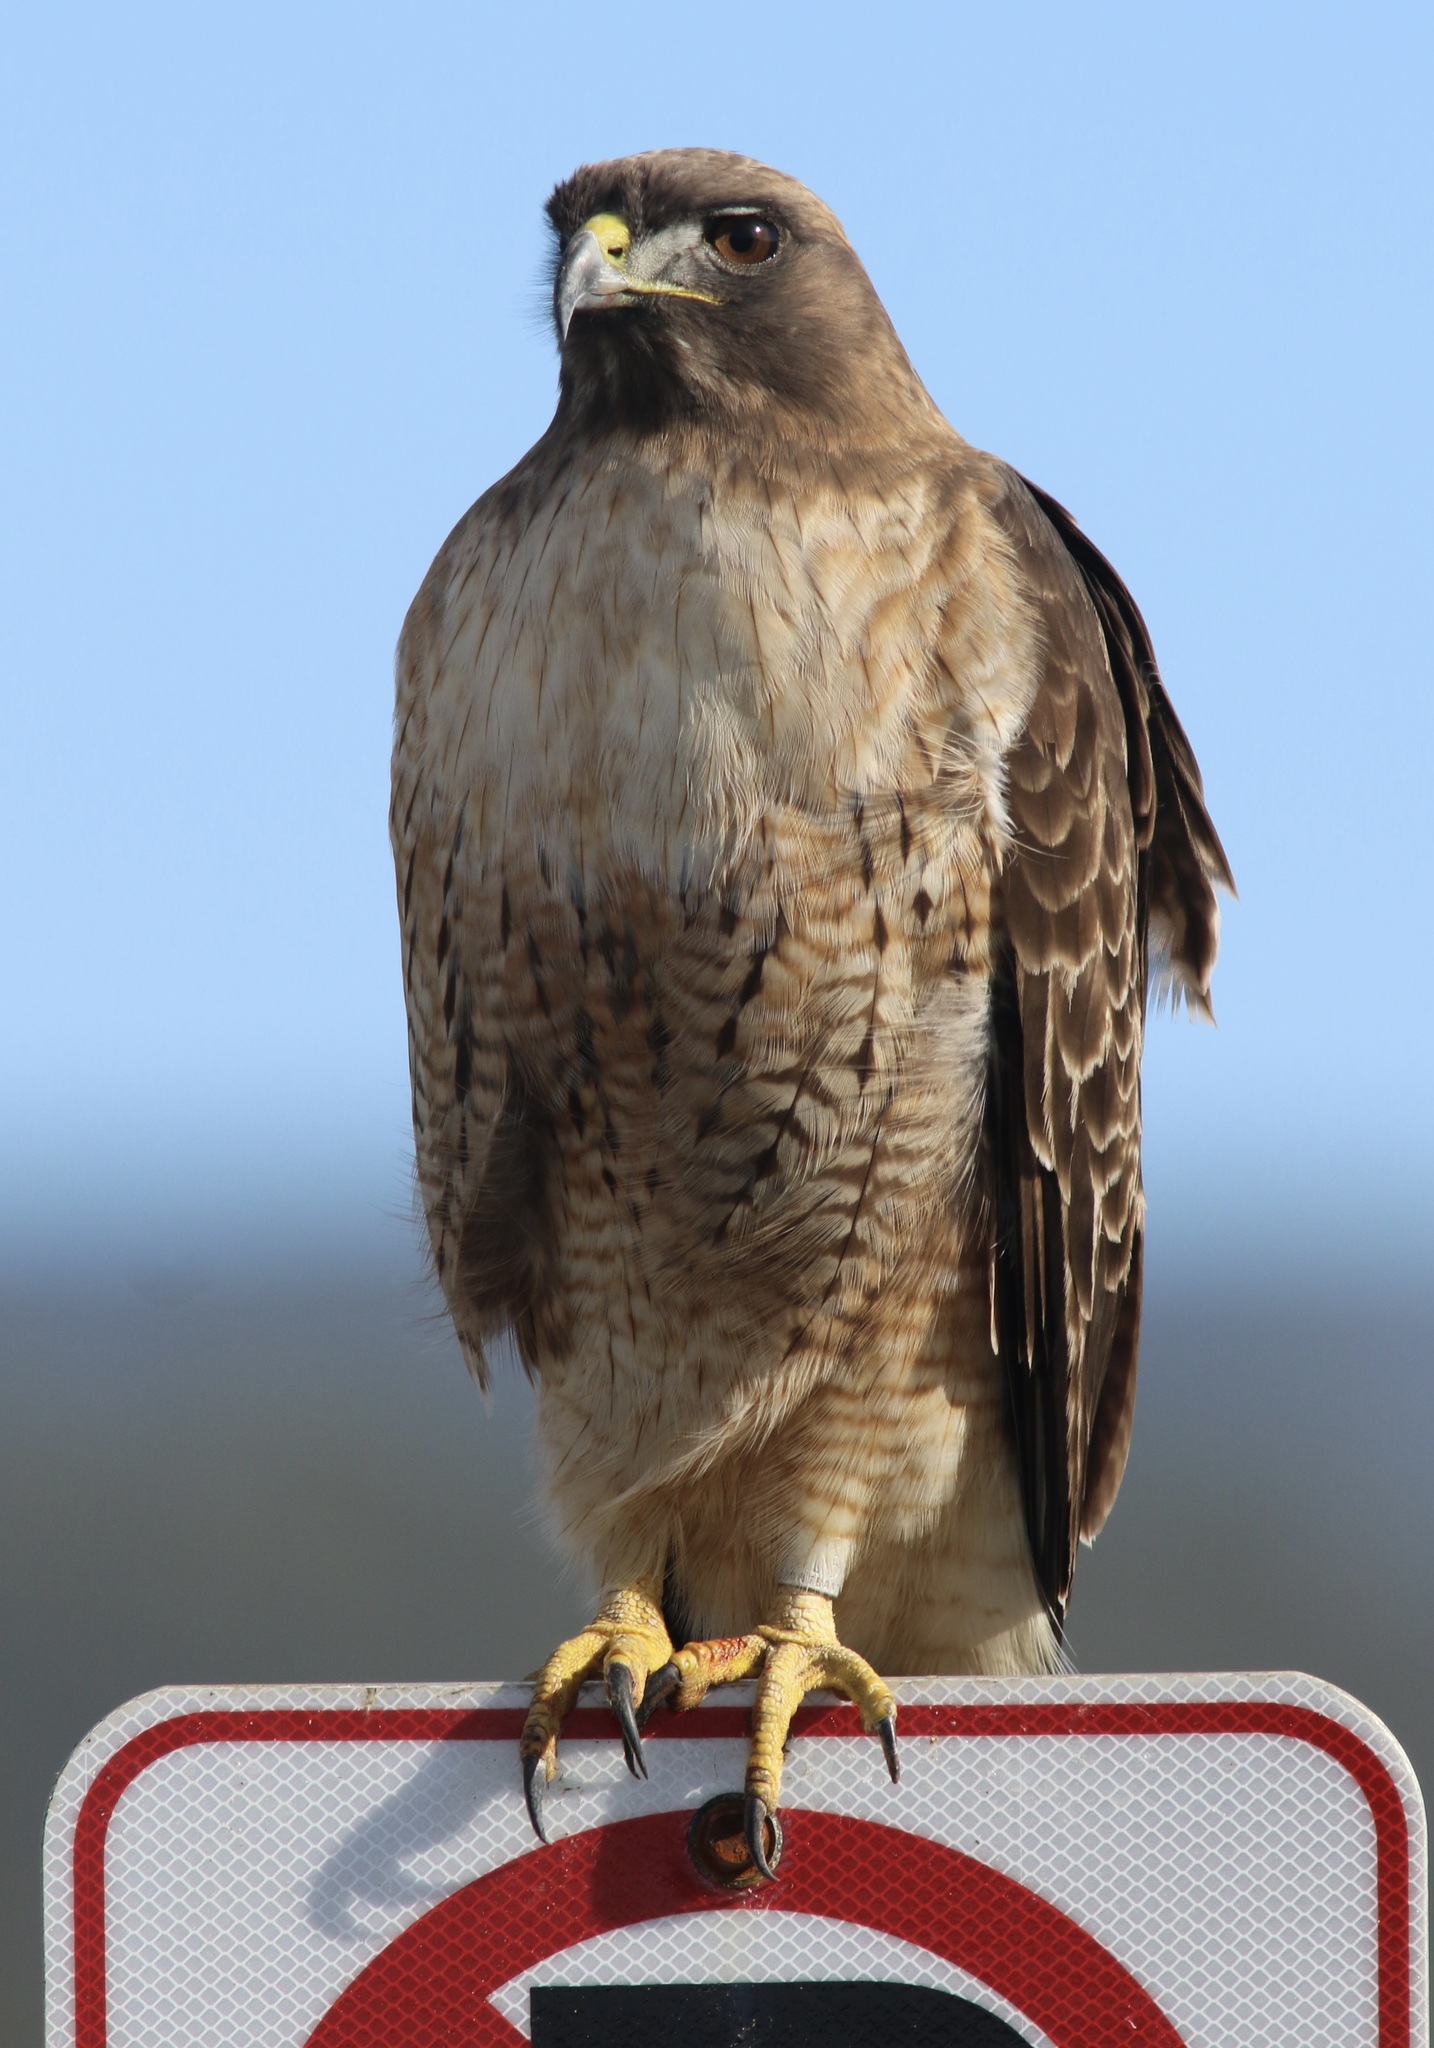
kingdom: Animalia
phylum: Chordata
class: Aves
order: Accipitriformes
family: Accipitridae
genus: Buteo
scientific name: Buteo jamaicensis
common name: Red-tailed hawk
